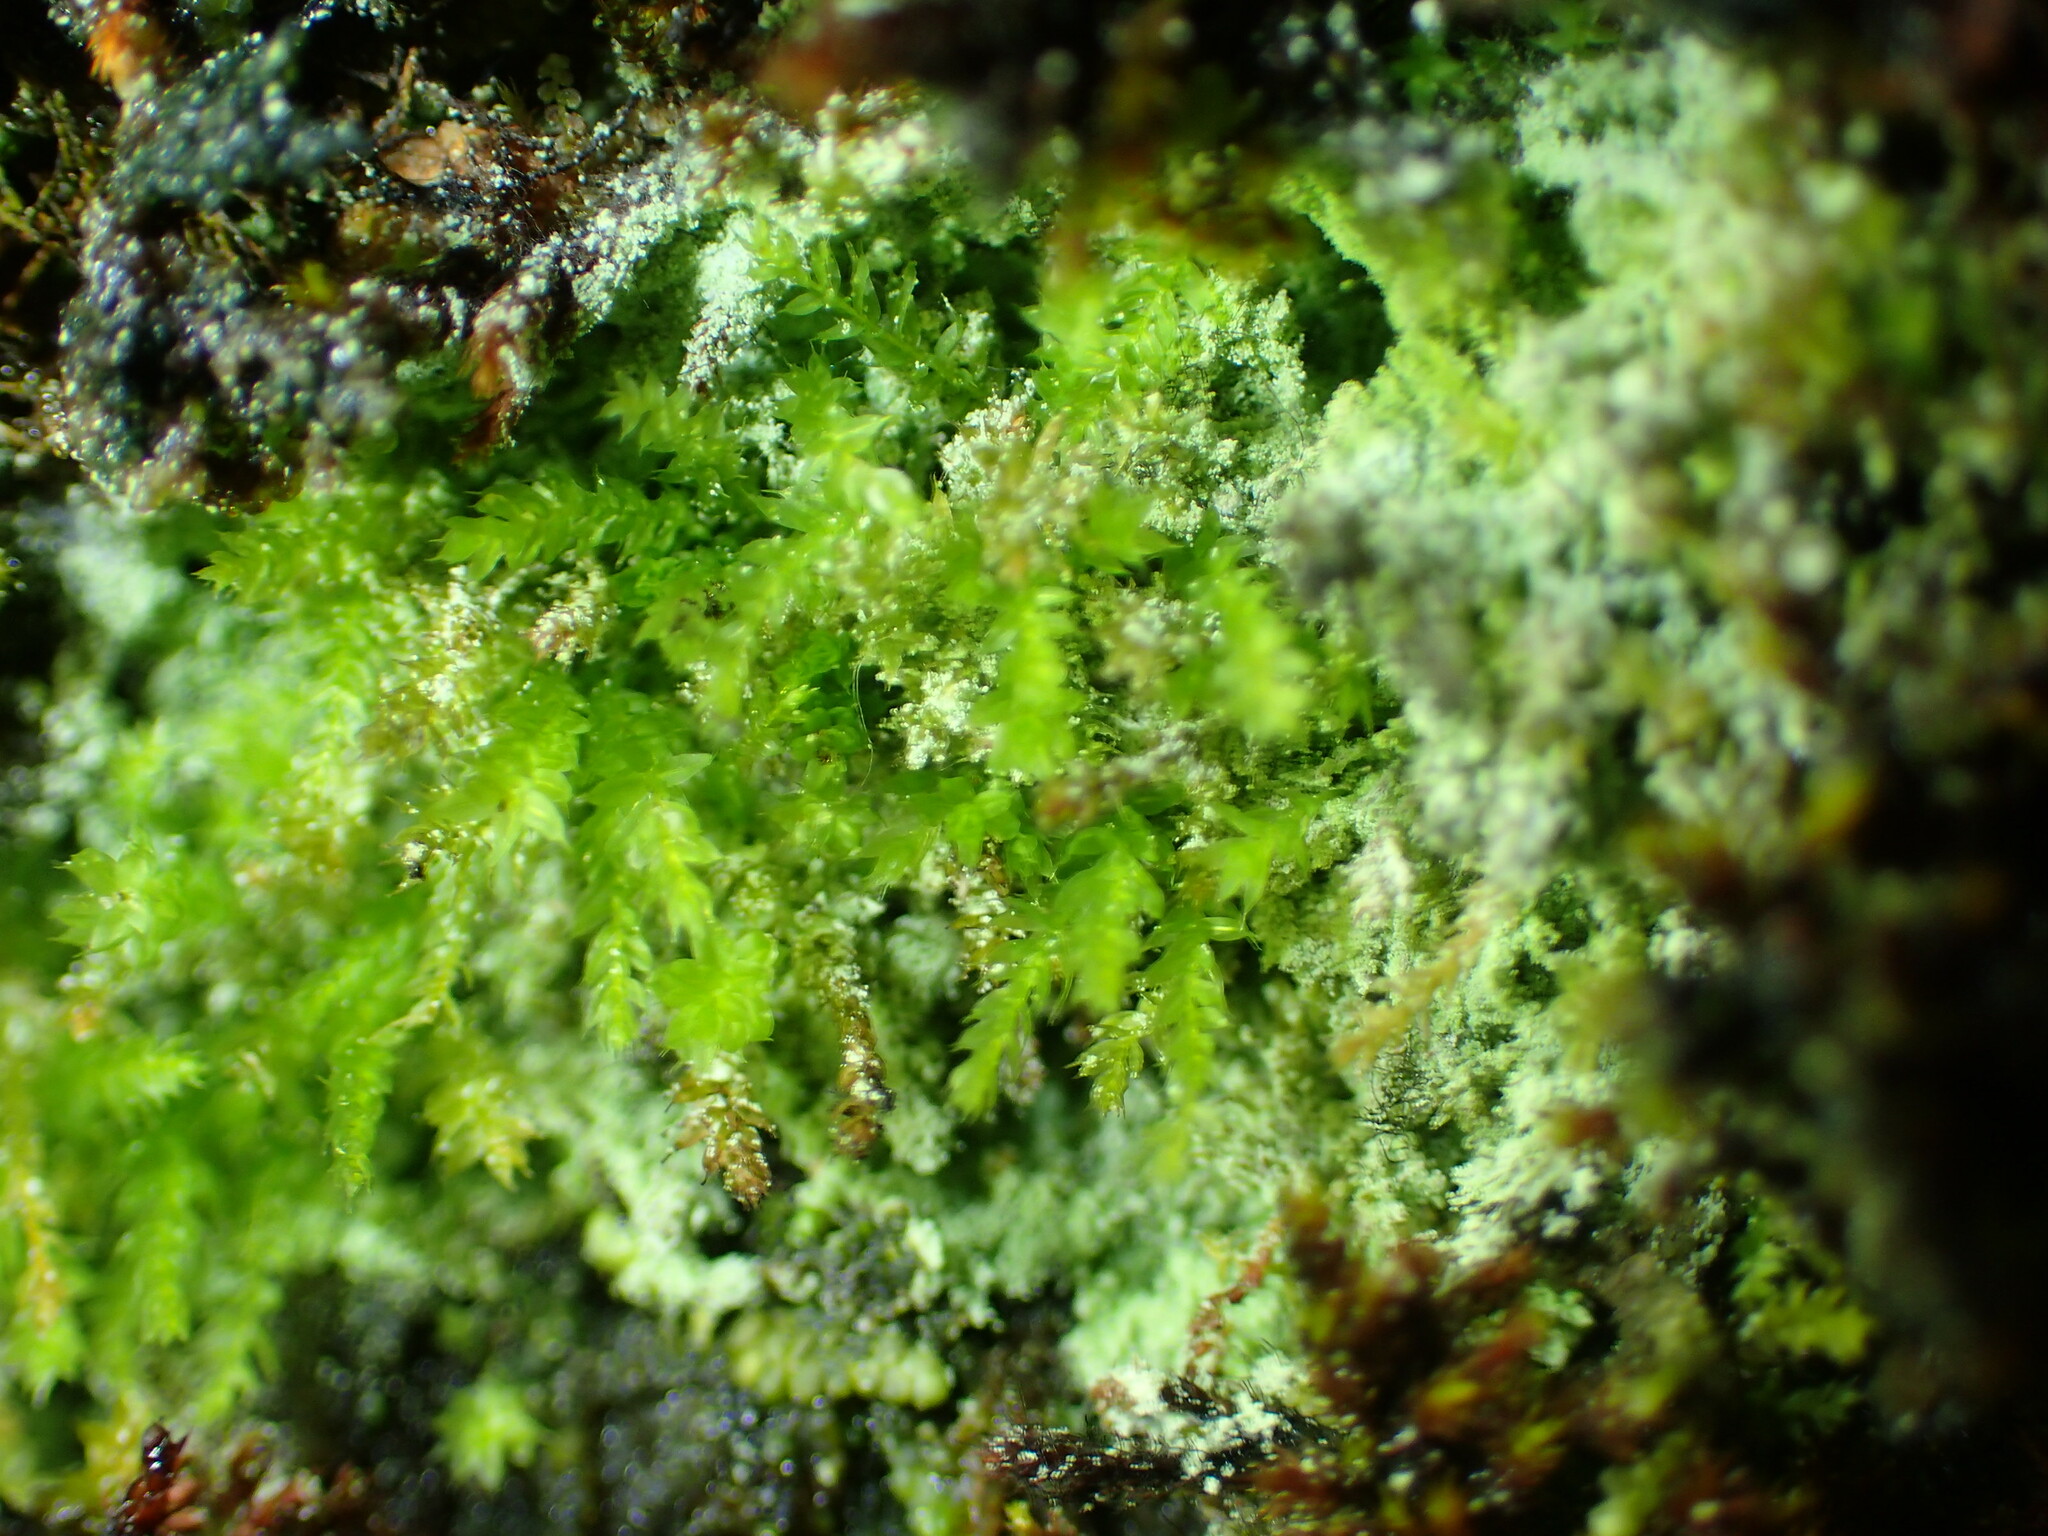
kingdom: Plantae
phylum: Bryophyta
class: Bryopsida
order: Orthodontiales
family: Orthodontiaceae
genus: Leptotheca
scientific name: Leptotheca gaudichaudii
